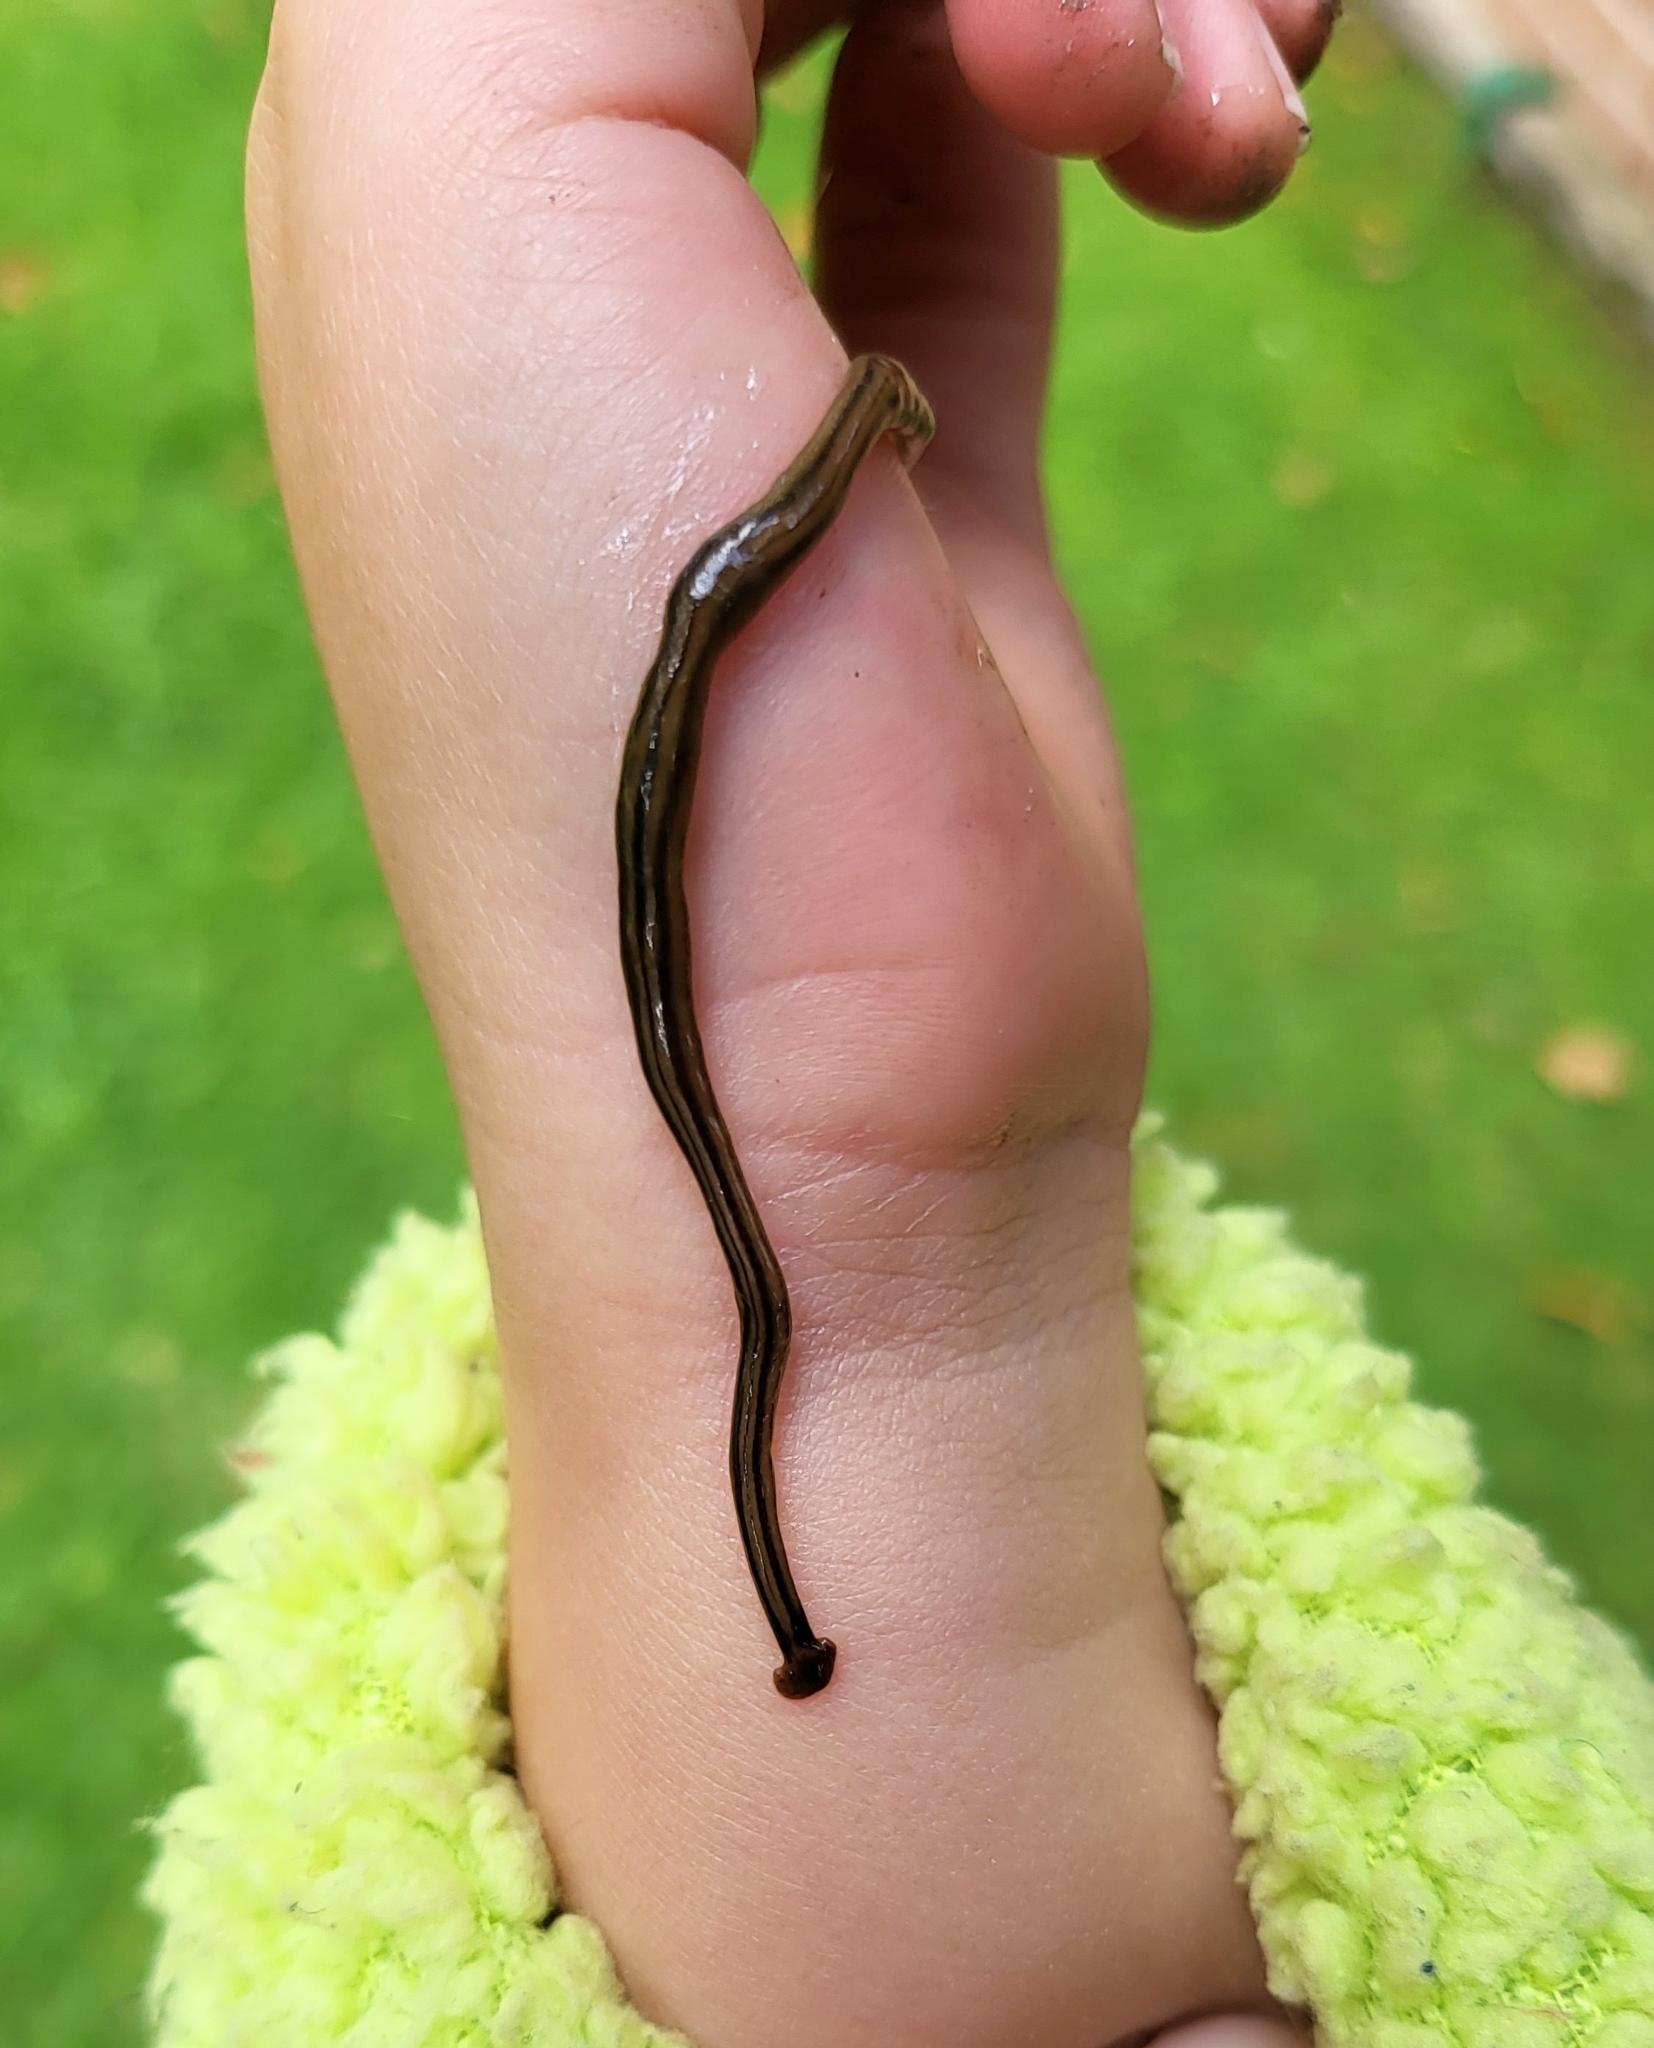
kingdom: Animalia
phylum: Platyhelminthes
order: Tricladida
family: Geoplanidae
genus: Bipalium
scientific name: Bipalium kewense
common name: Hammerhead flatworm
